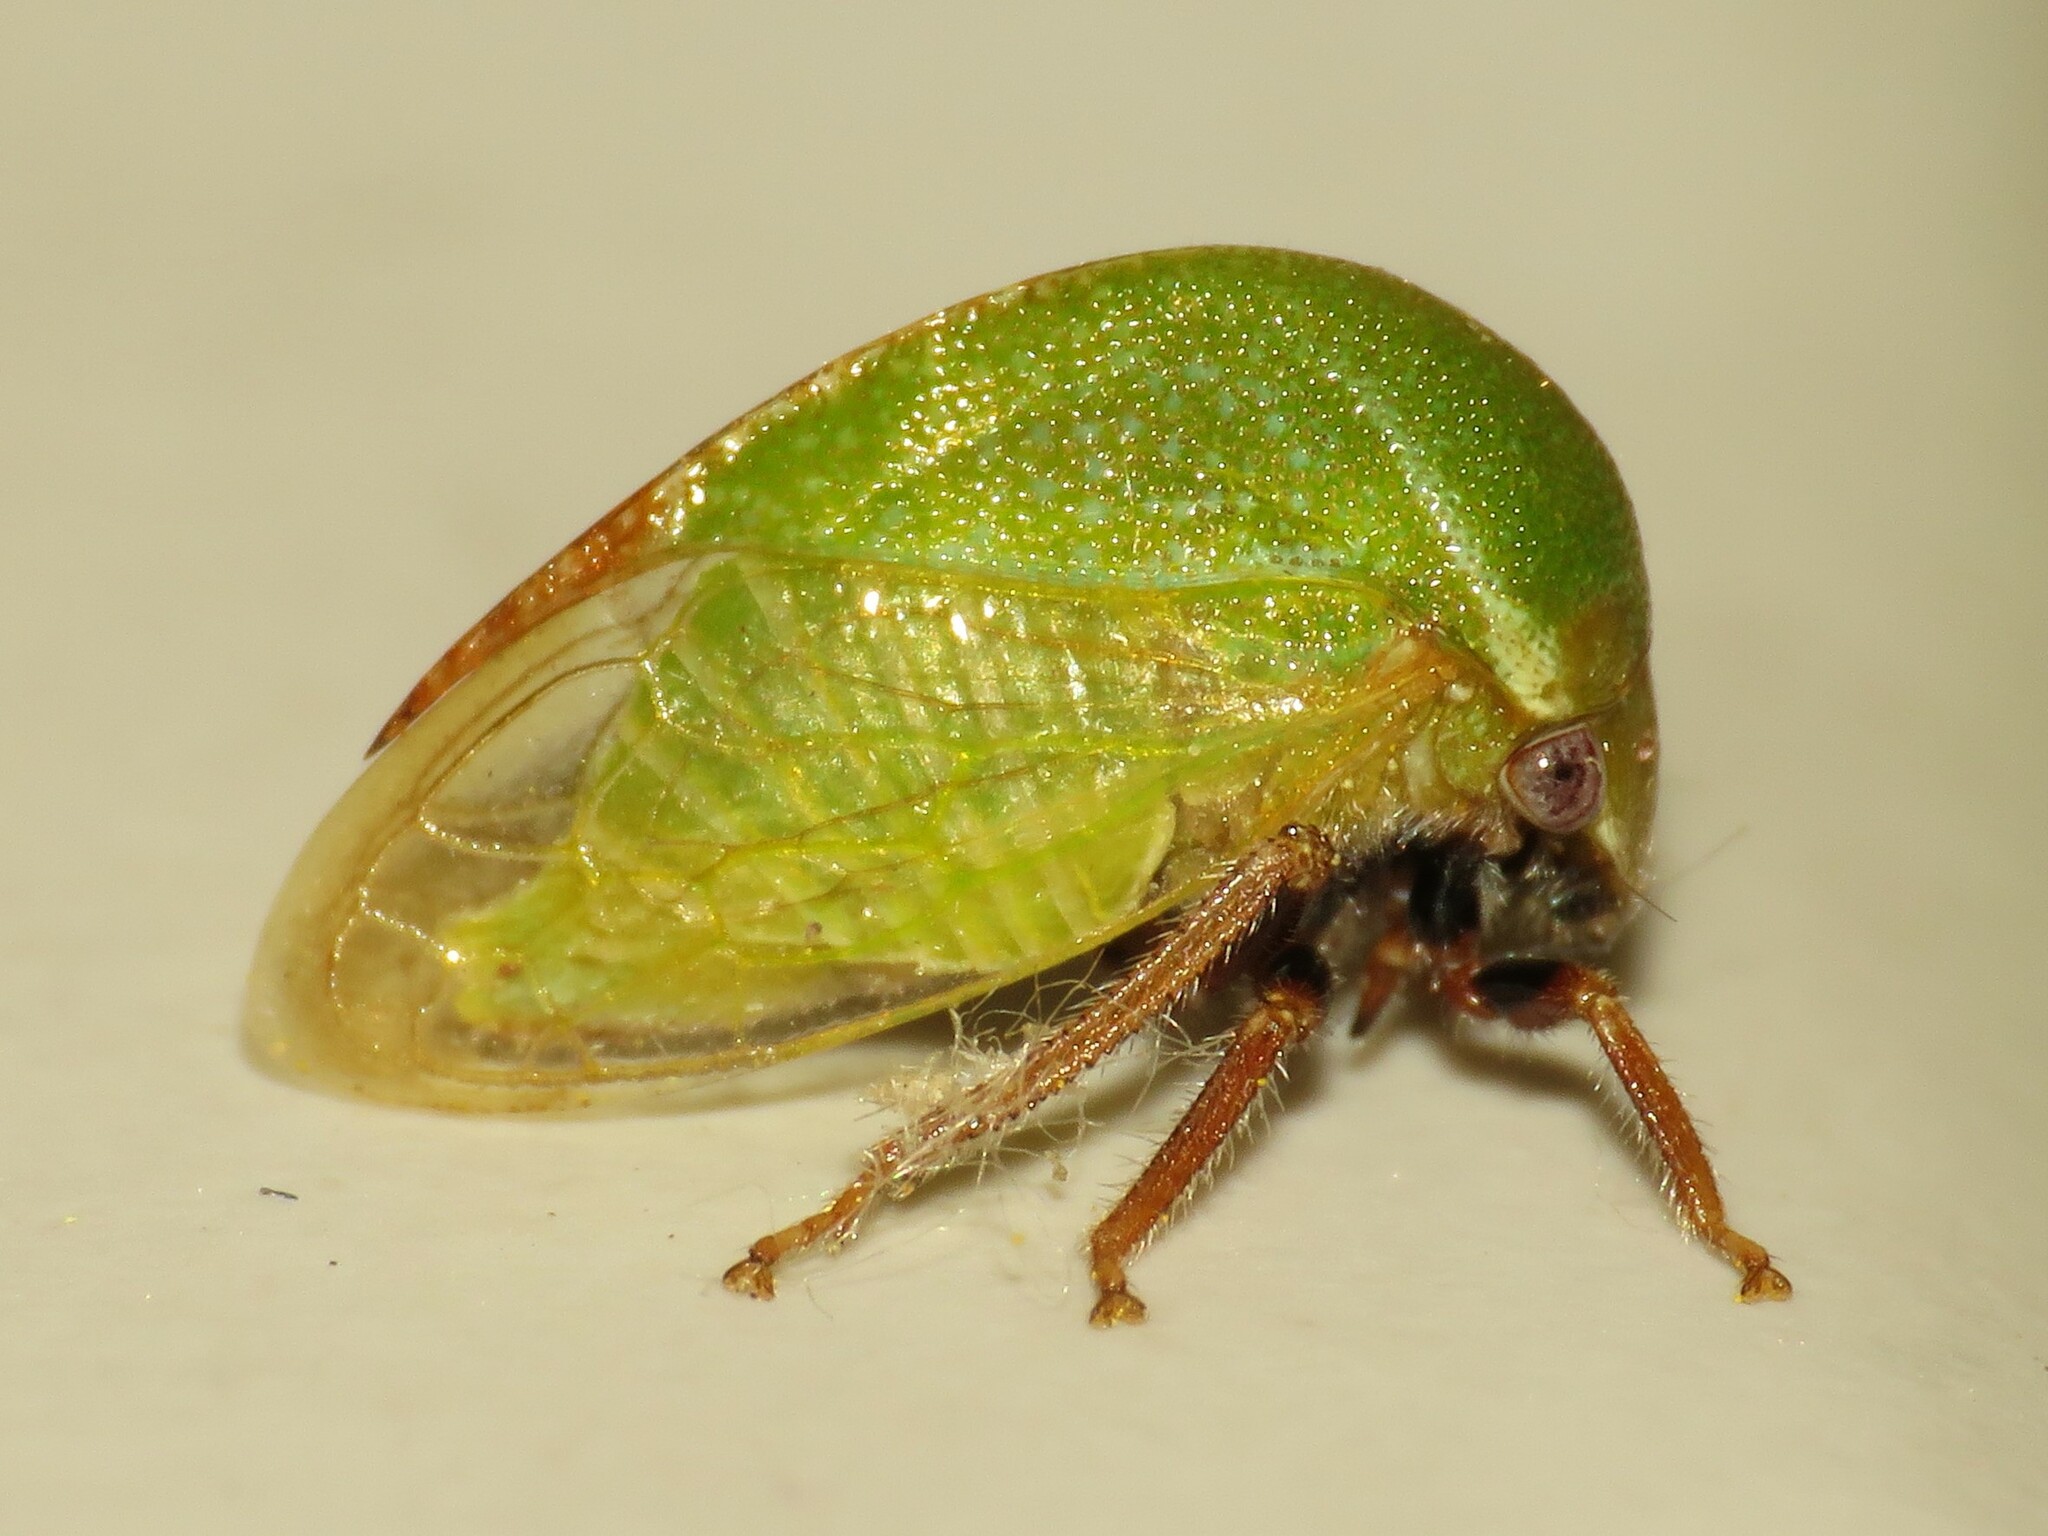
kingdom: Animalia
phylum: Arthropoda
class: Insecta
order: Hemiptera
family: Membracidae
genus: Stictocephala
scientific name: Stictocephala lutea
